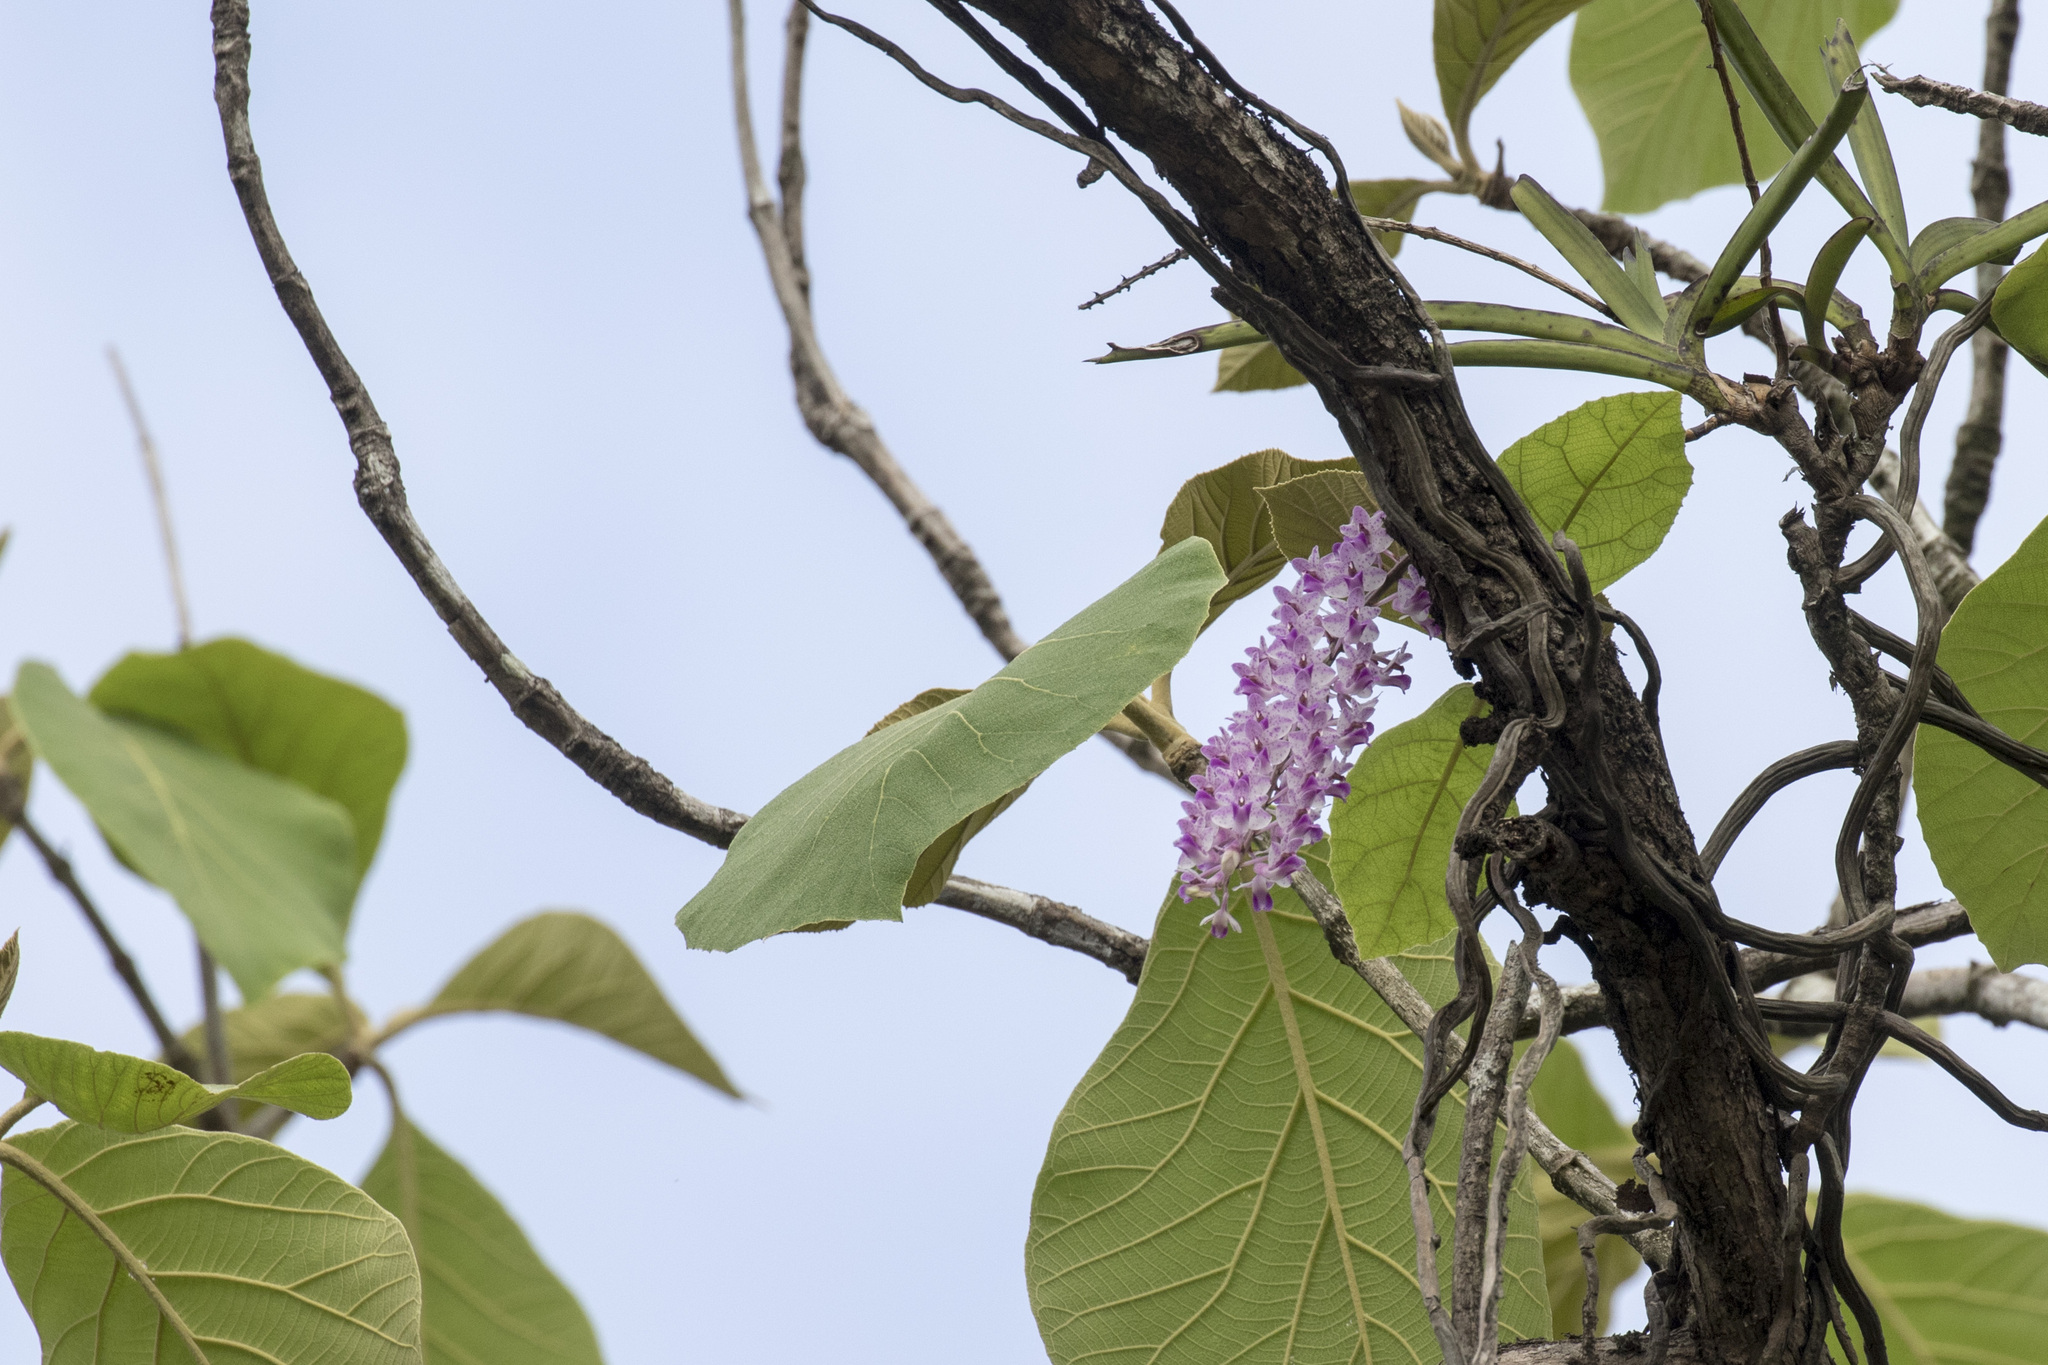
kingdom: Plantae
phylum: Tracheophyta
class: Liliopsida
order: Asparagales
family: Orchidaceae
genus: Rhynchostylis
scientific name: Rhynchostylis retusa
